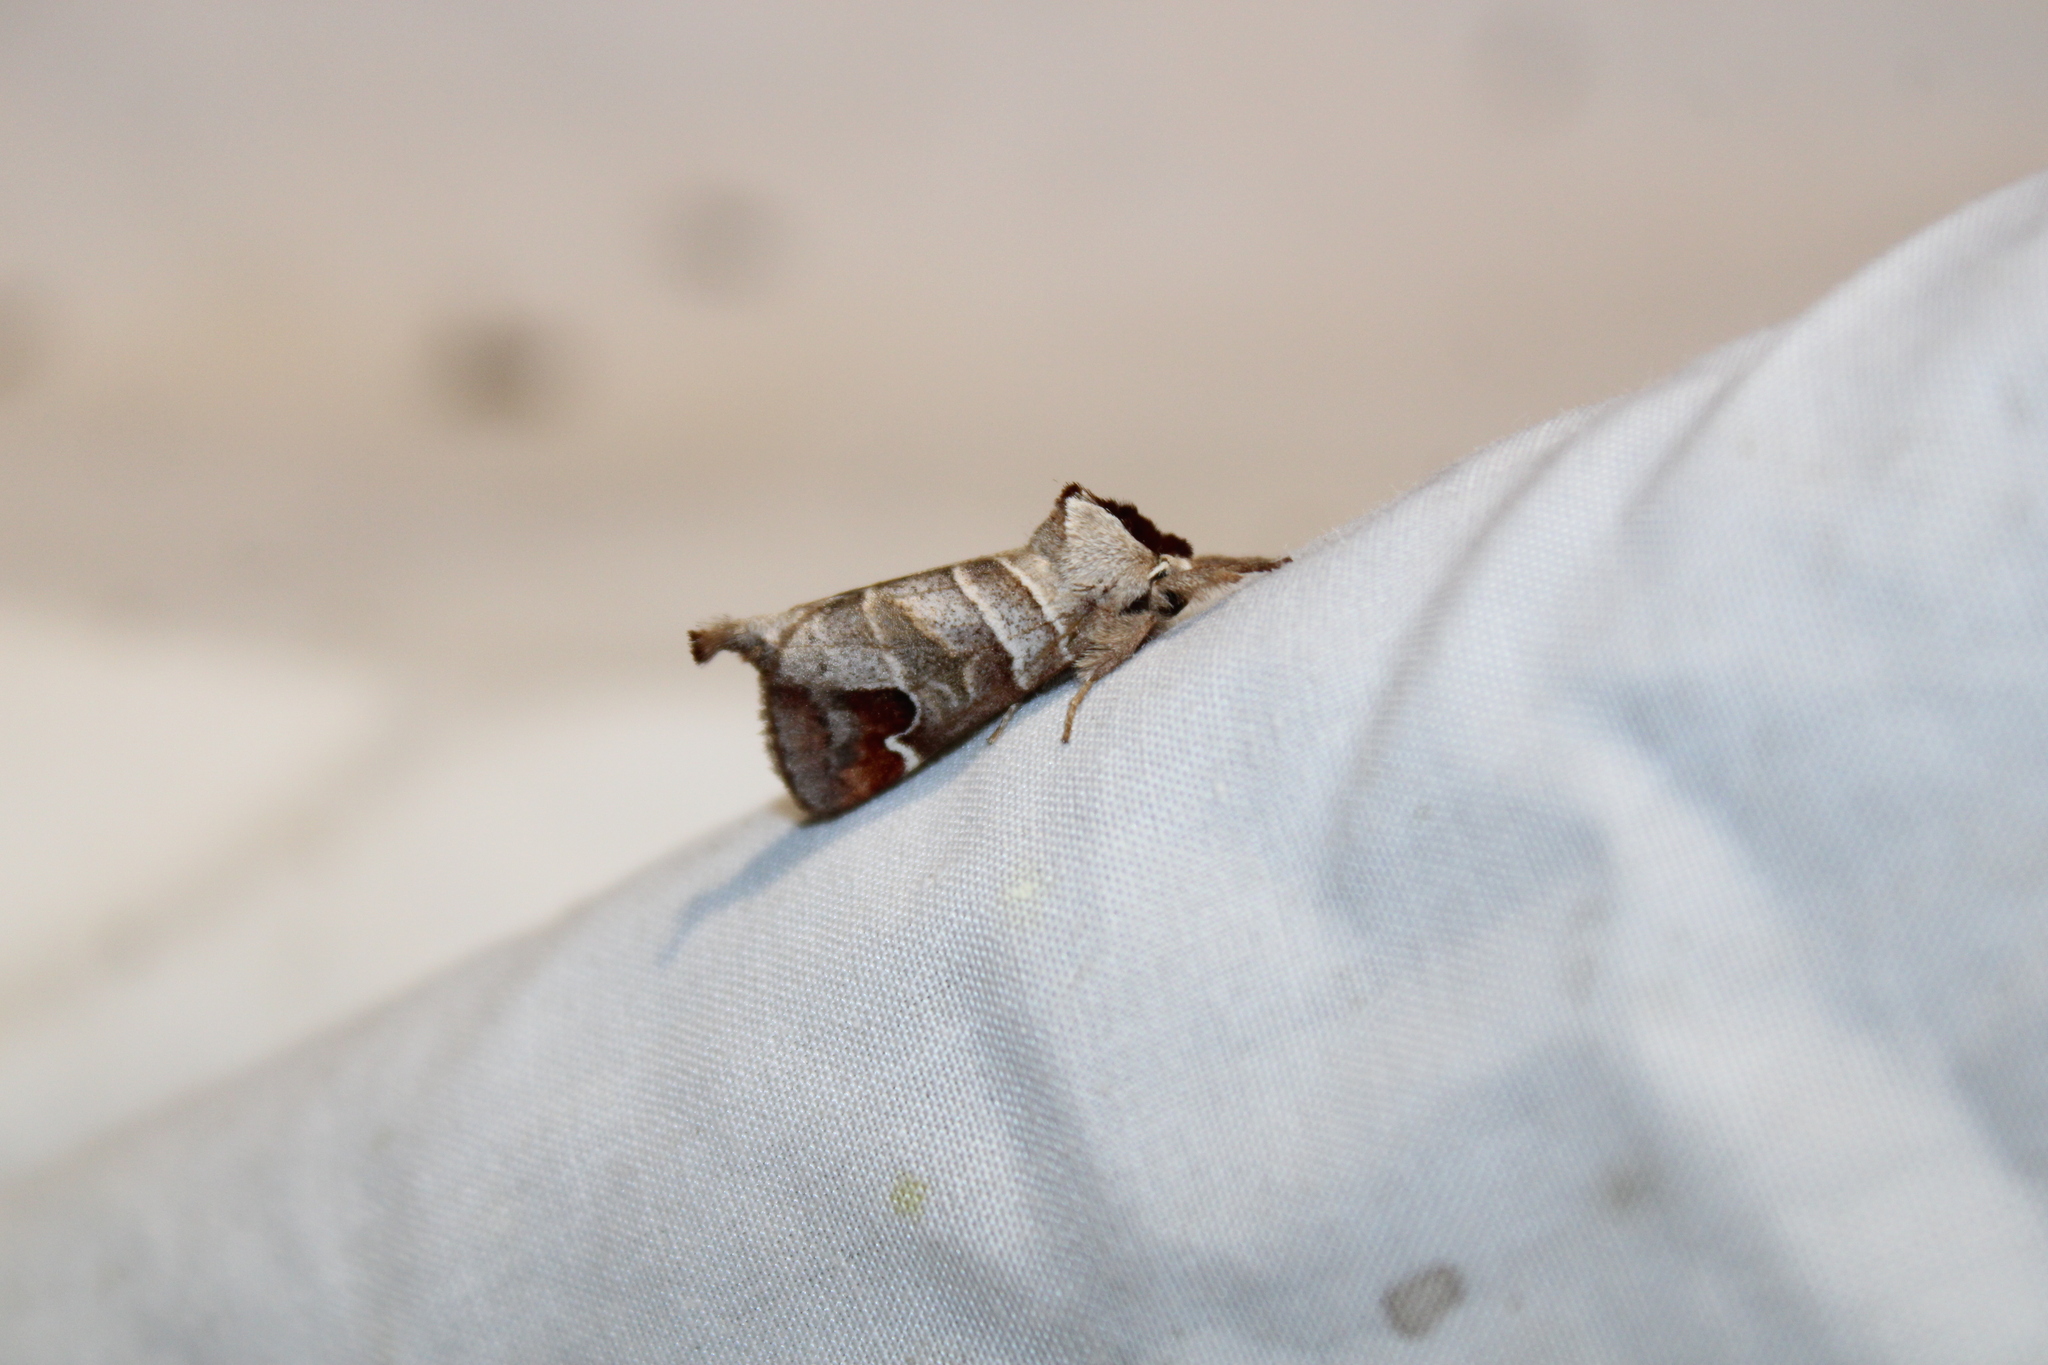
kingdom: Animalia
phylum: Arthropoda
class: Insecta
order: Lepidoptera
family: Notodontidae
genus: Clostera
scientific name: Clostera albosigma
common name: Sigmoid prominent
